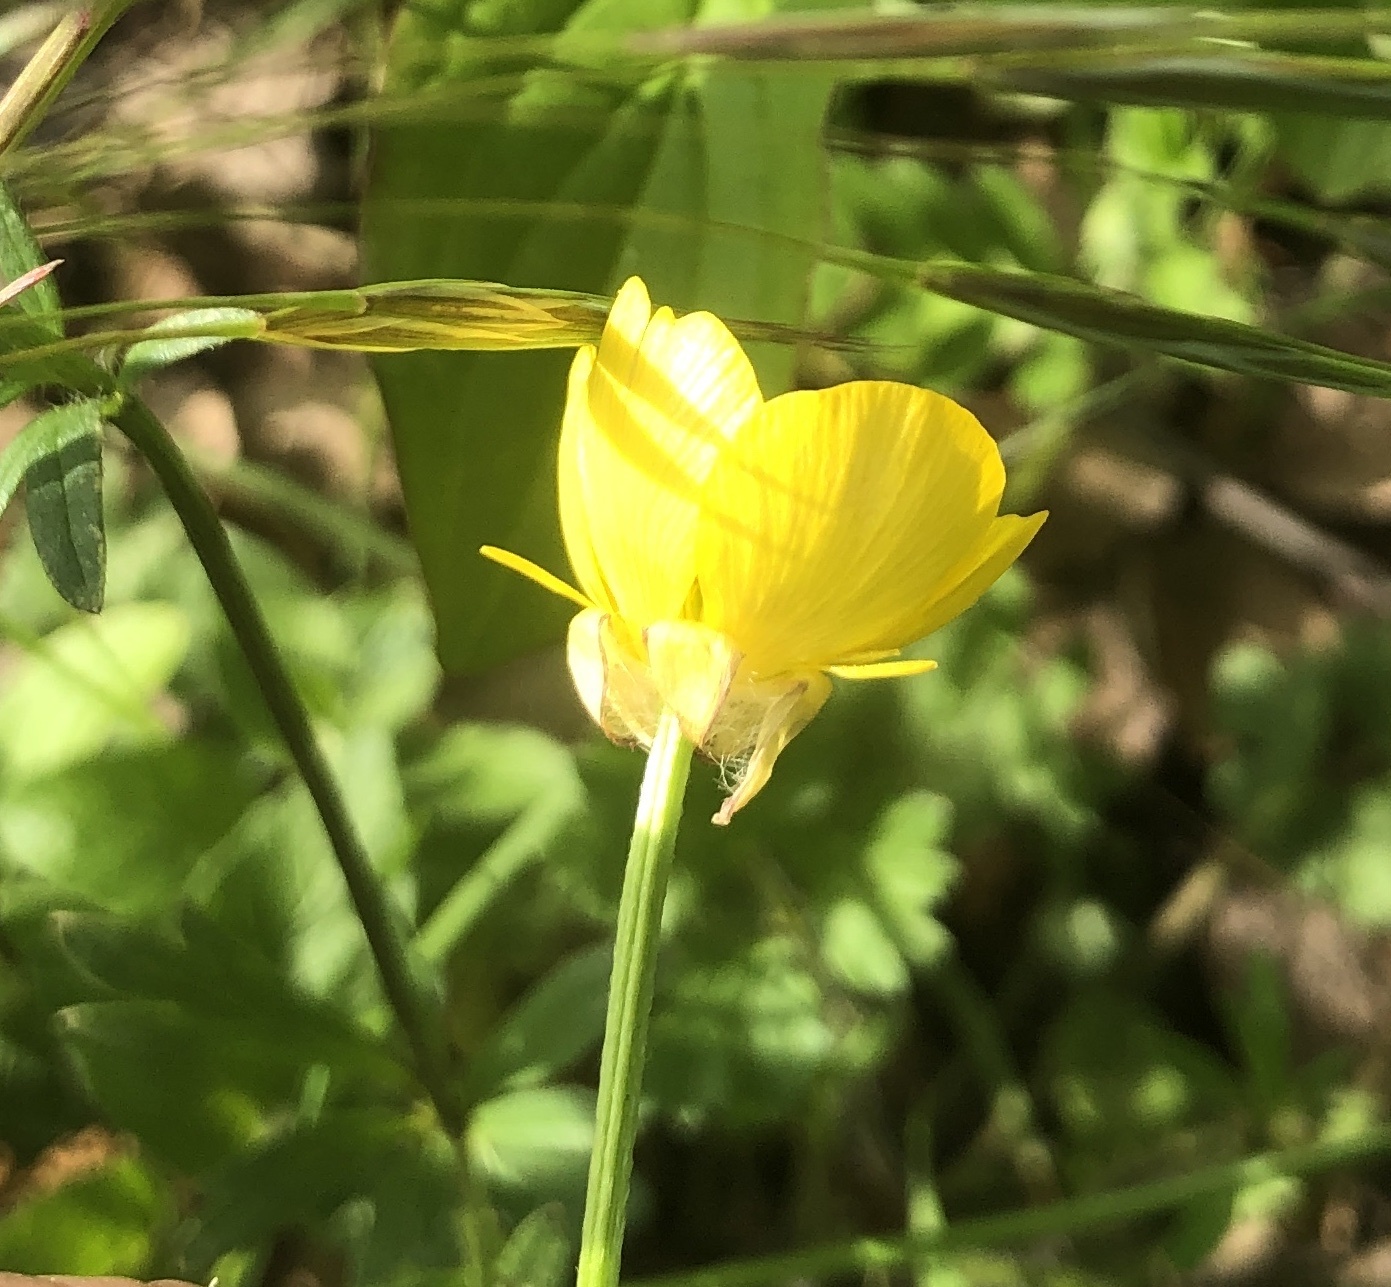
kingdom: Plantae
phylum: Tracheophyta
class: Magnoliopsida
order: Ranunculales
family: Ranunculaceae
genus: Ranunculus
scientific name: Ranunculus bulbosus
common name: Bulbous buttercup
